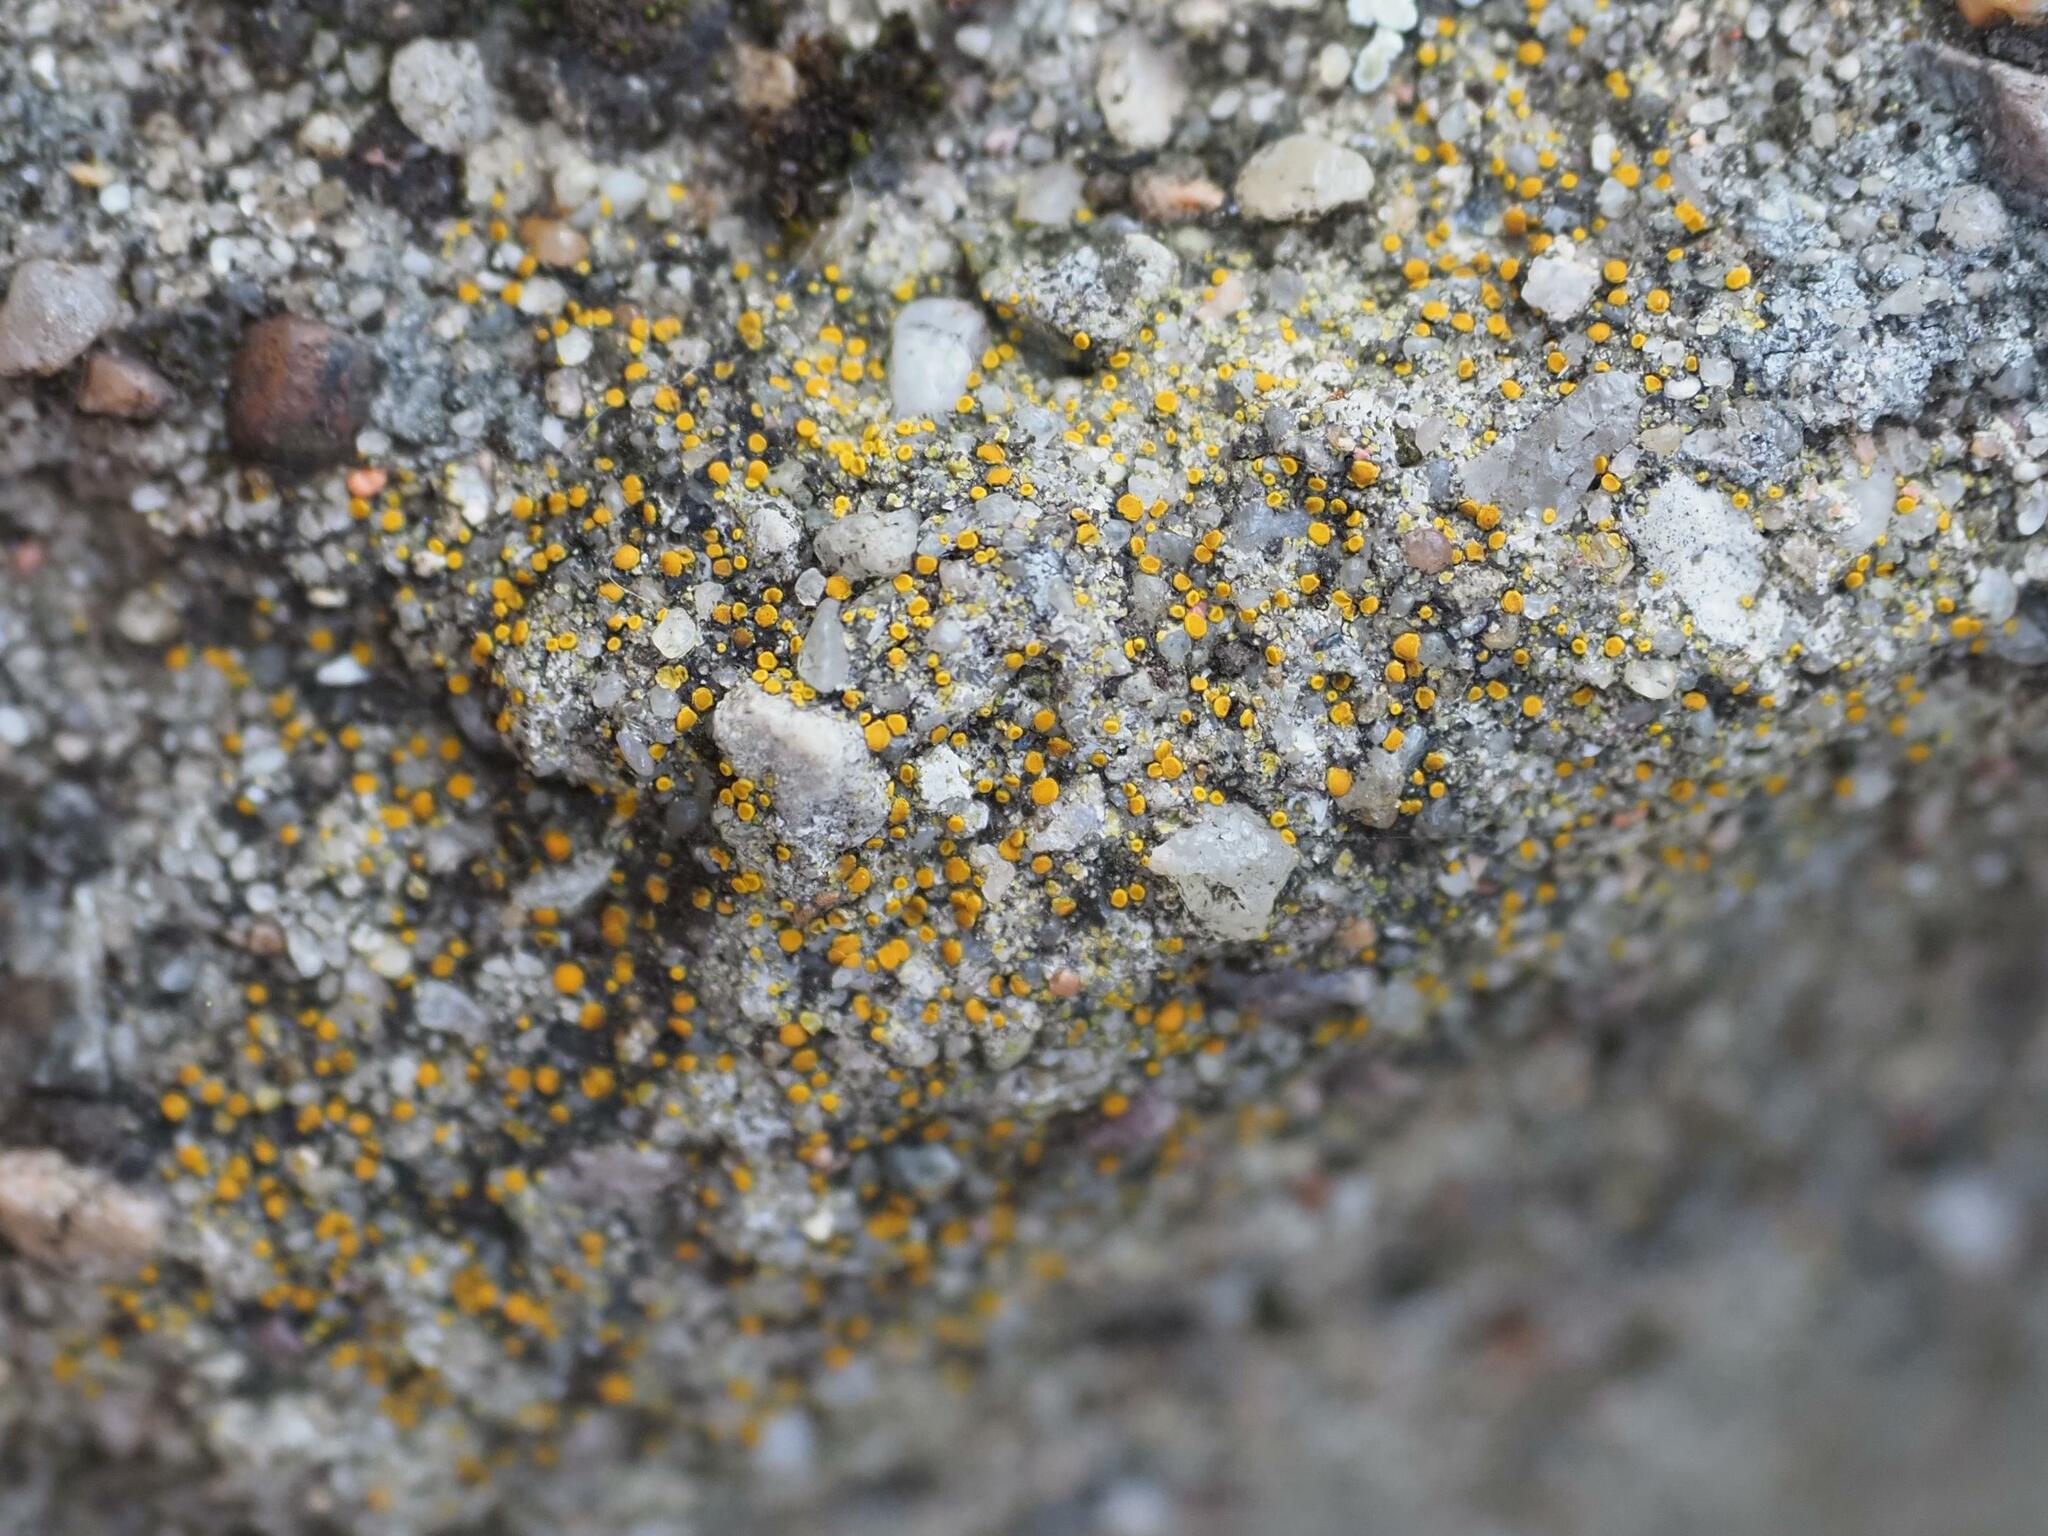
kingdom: Fungi
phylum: Ascomycota
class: Candelariomycetes
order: Candelariales
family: Candelariaceae
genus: Candelariella
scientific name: Candelariella aurella
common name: Hidden goldspeck lichen
